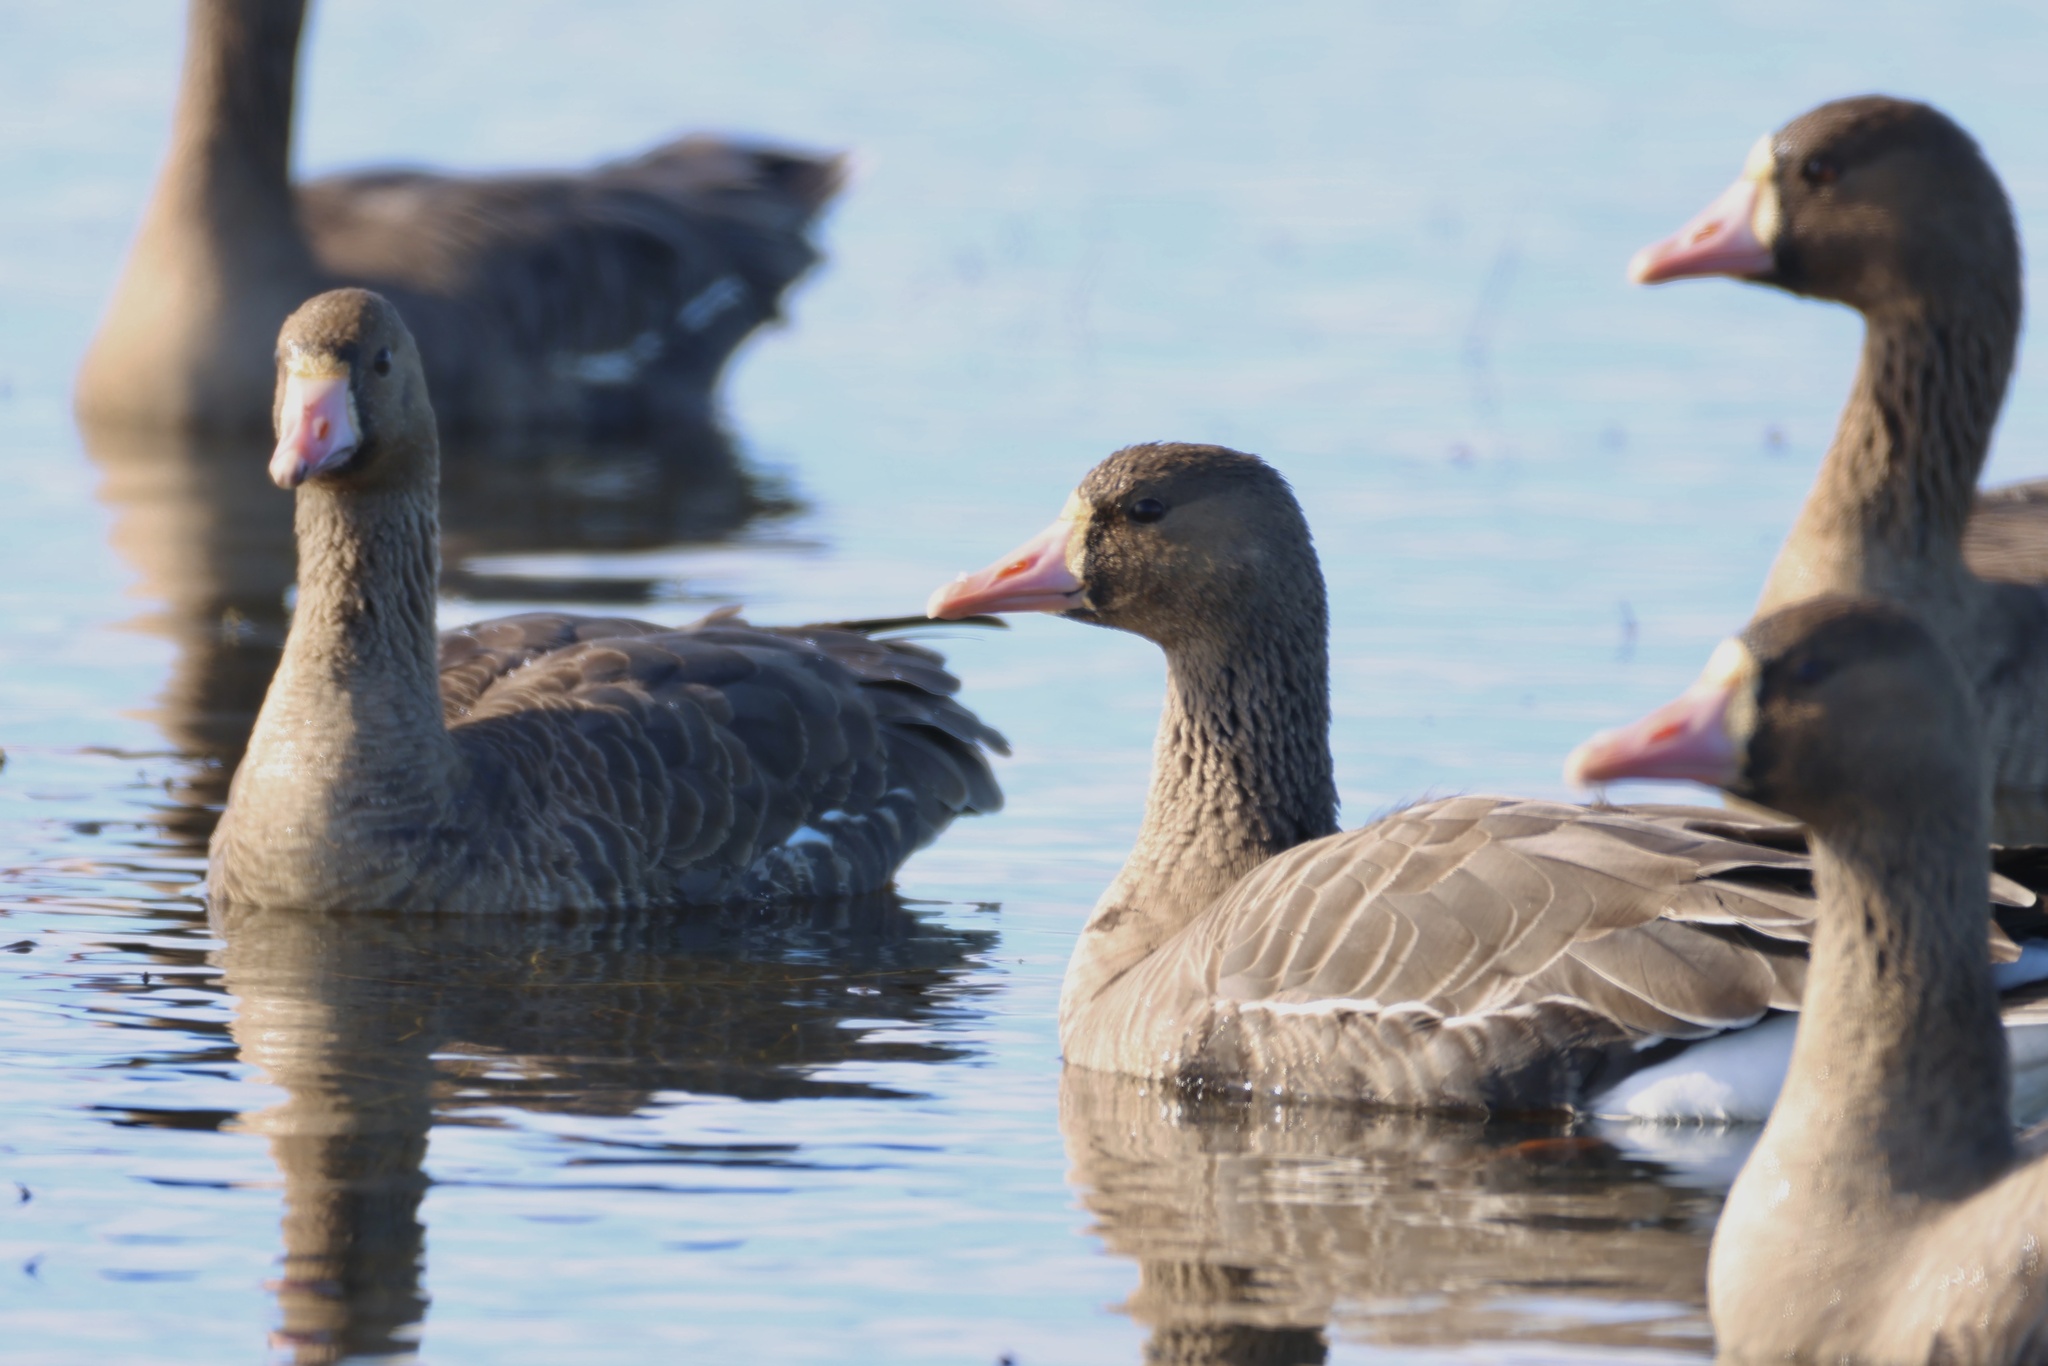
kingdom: Animalia
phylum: Chordata
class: Aves
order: Anseriformes
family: Anatidae
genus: Anser
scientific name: Anser albifrons
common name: Greater white-fronted goose
